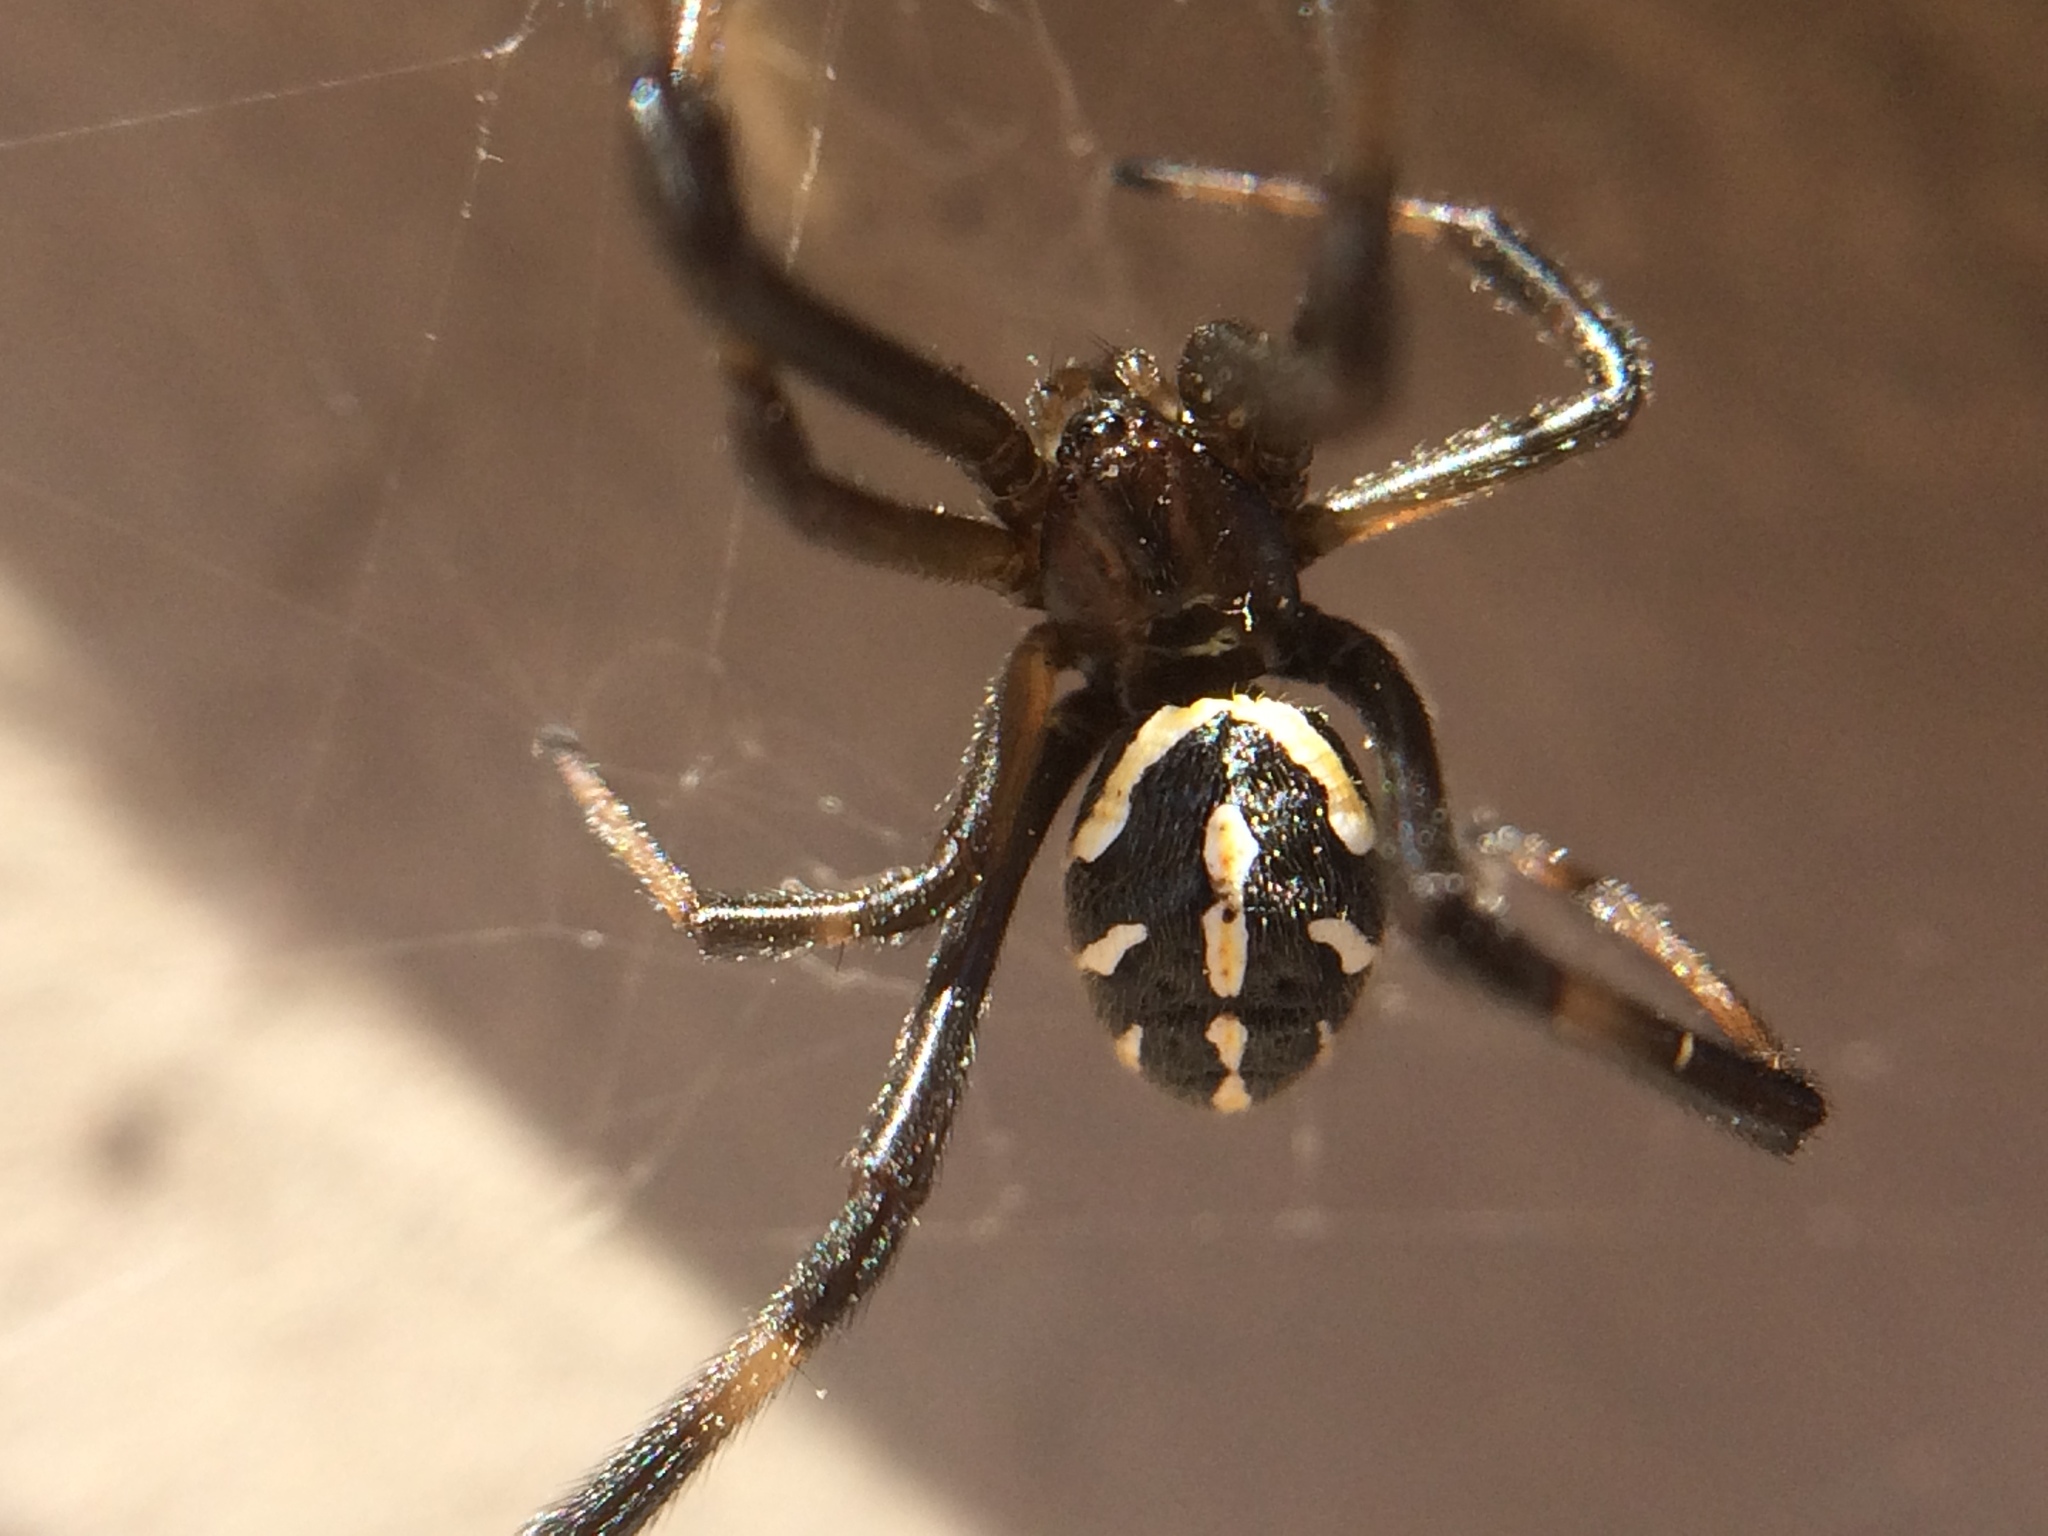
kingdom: Animalia
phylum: Arthropoda
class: Arachnida
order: Araneae
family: Theridiidae
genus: Latrodectus
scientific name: Latrodectus hesperus
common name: Western black widow
